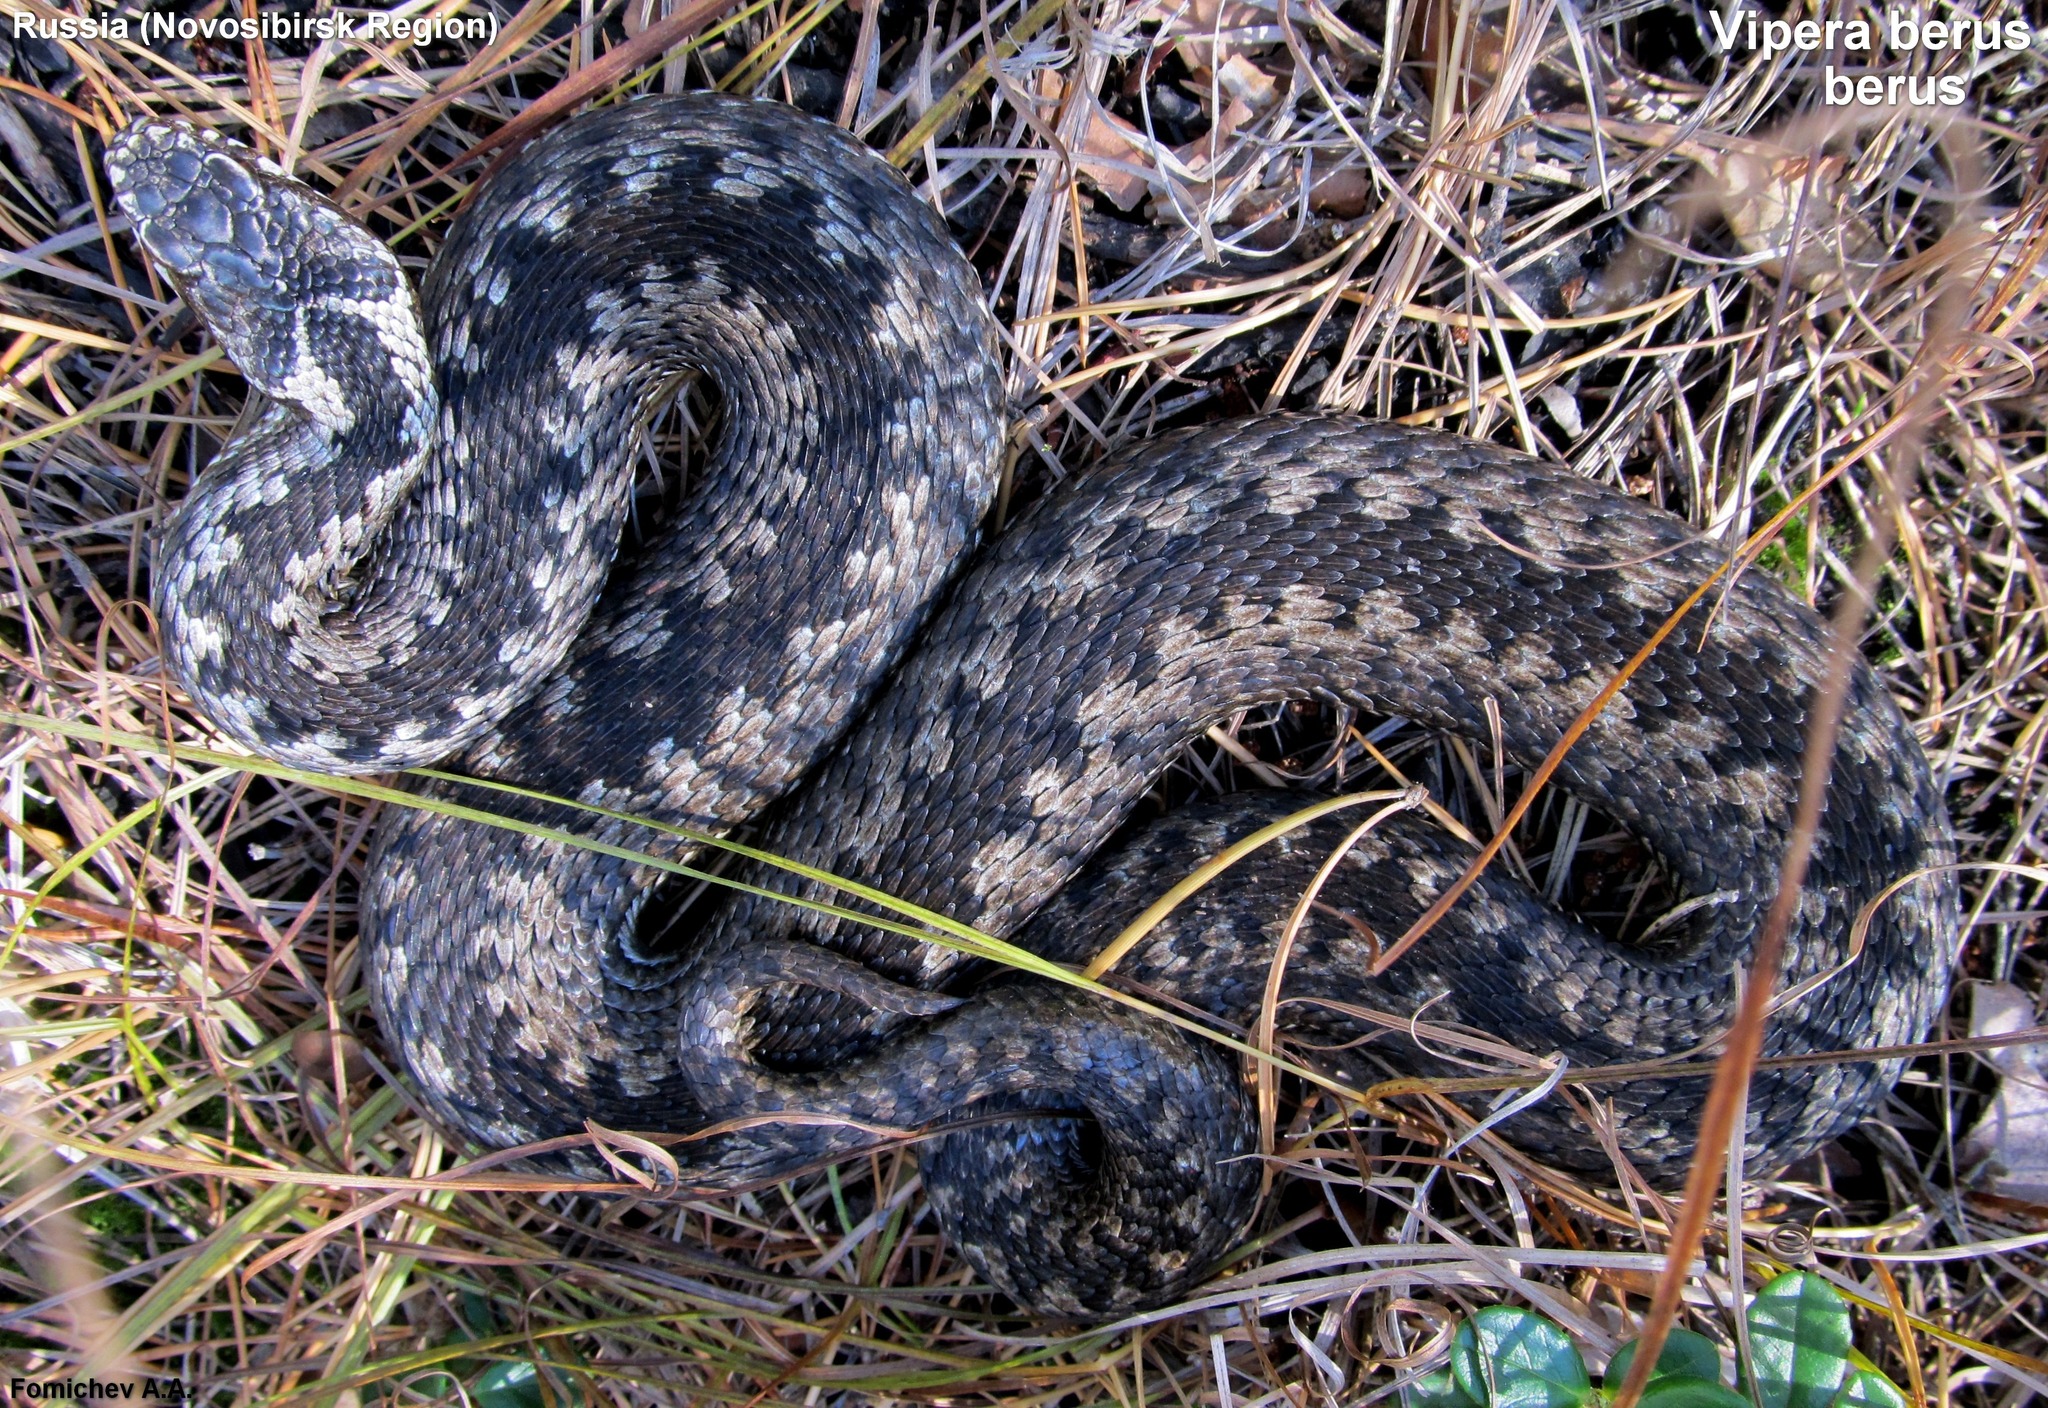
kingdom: Animalia
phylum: Chordata
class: Squamata
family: Viperidae
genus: Vipera
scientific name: Vipera berus
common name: Adder
